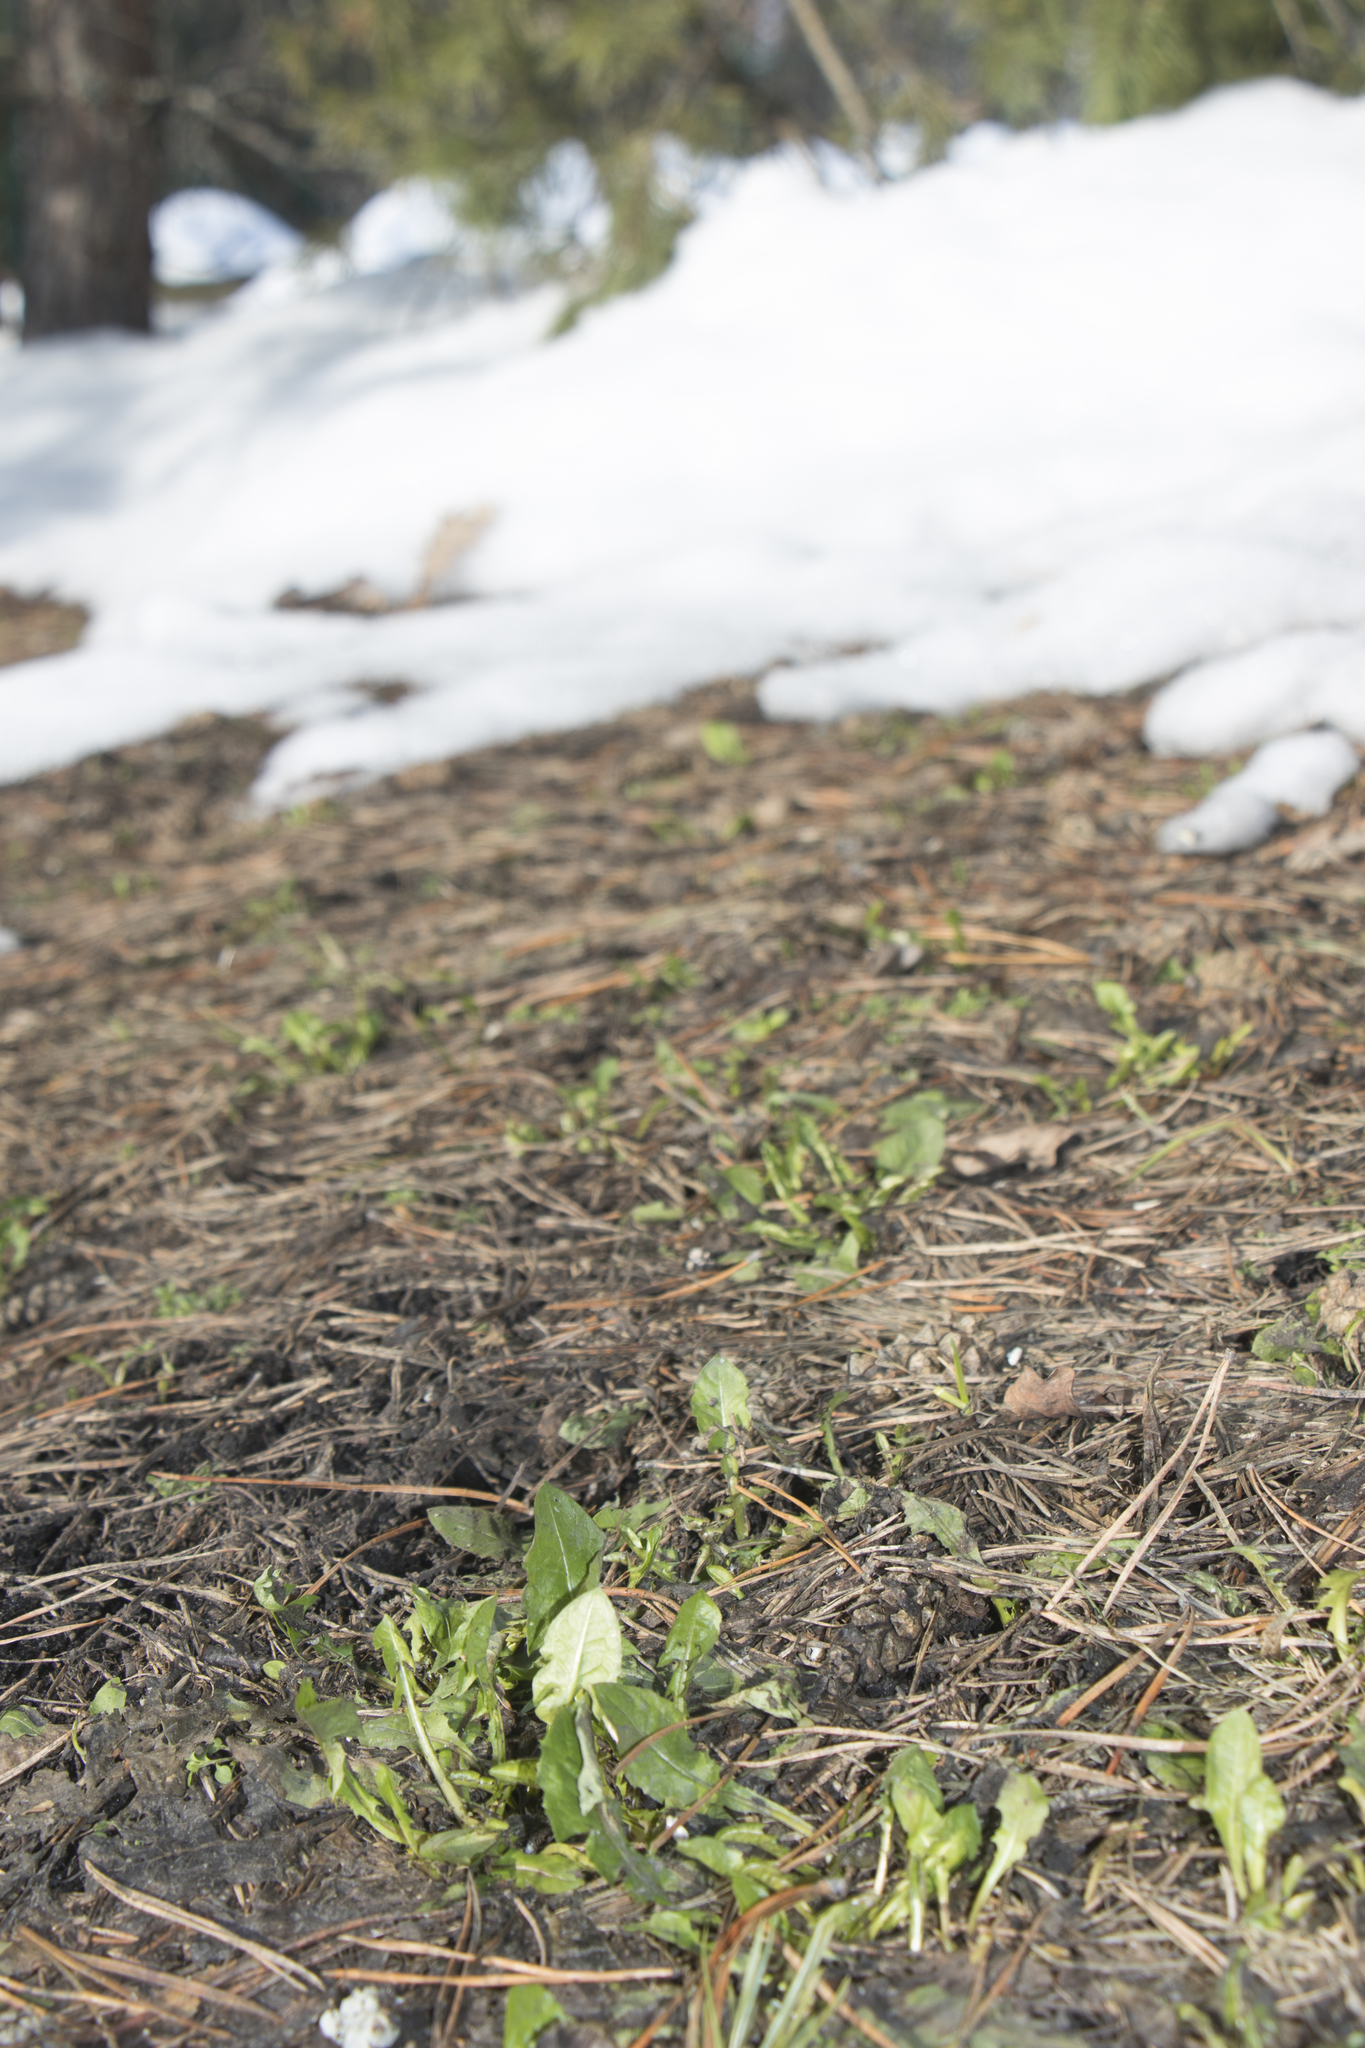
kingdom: Plantae
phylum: Tracheophyta
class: Magnoliopsida
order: Asterales
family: Asteraceae
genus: Taraxacum
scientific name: Taraxacum officinale
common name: Common dandelion
